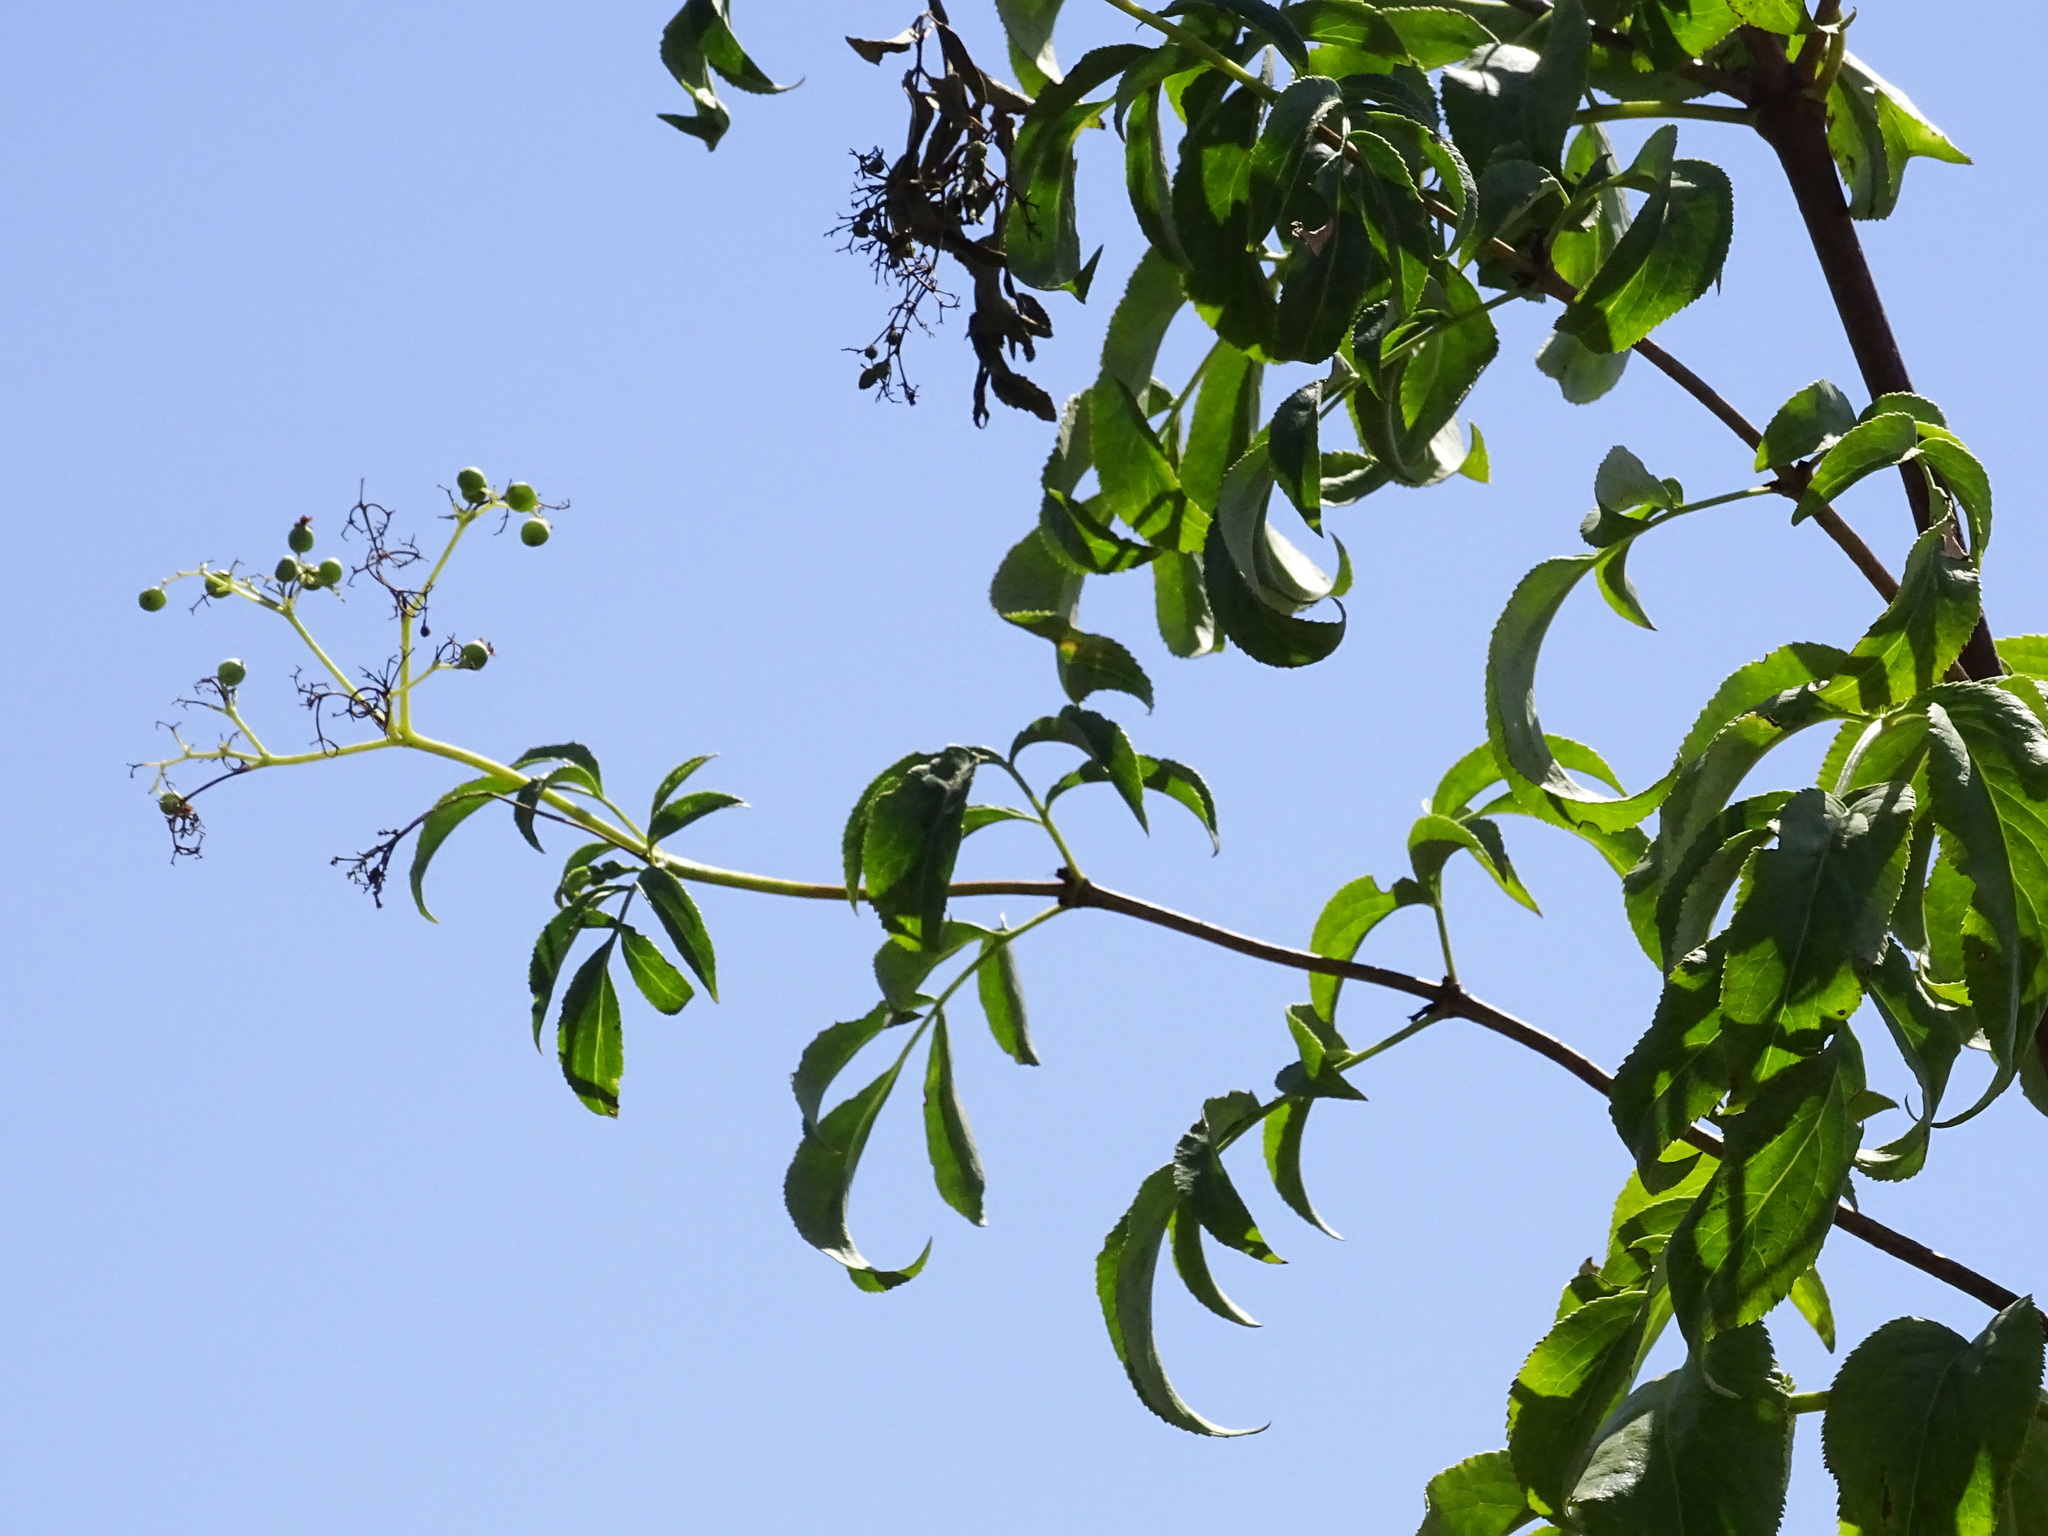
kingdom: Plantae
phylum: Tracheophyta
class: Magnoliopsida
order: Dipsacales
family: Viburnaceae
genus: Sambucus
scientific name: Sambucus cerulea
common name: Blue elder
